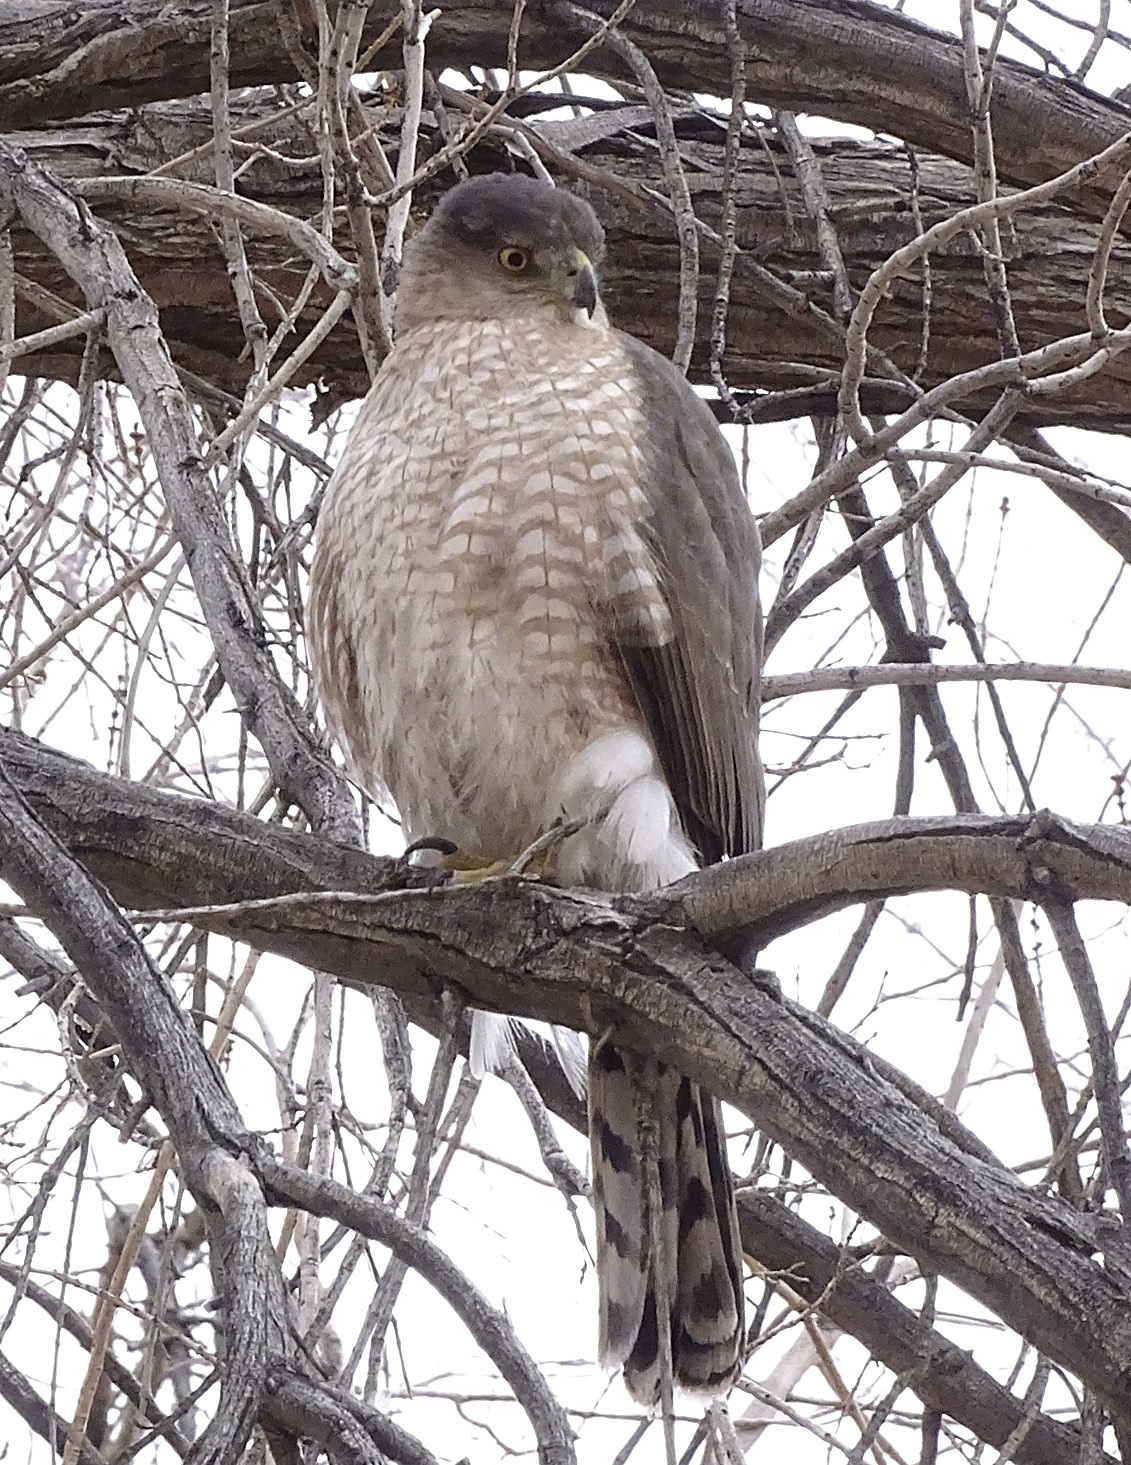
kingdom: Animalia
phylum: Chordata
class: Aves
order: Accipitriformes
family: Accipitridae
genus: Accipiter
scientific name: Accipiter cooperii
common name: Cooper's hawk
